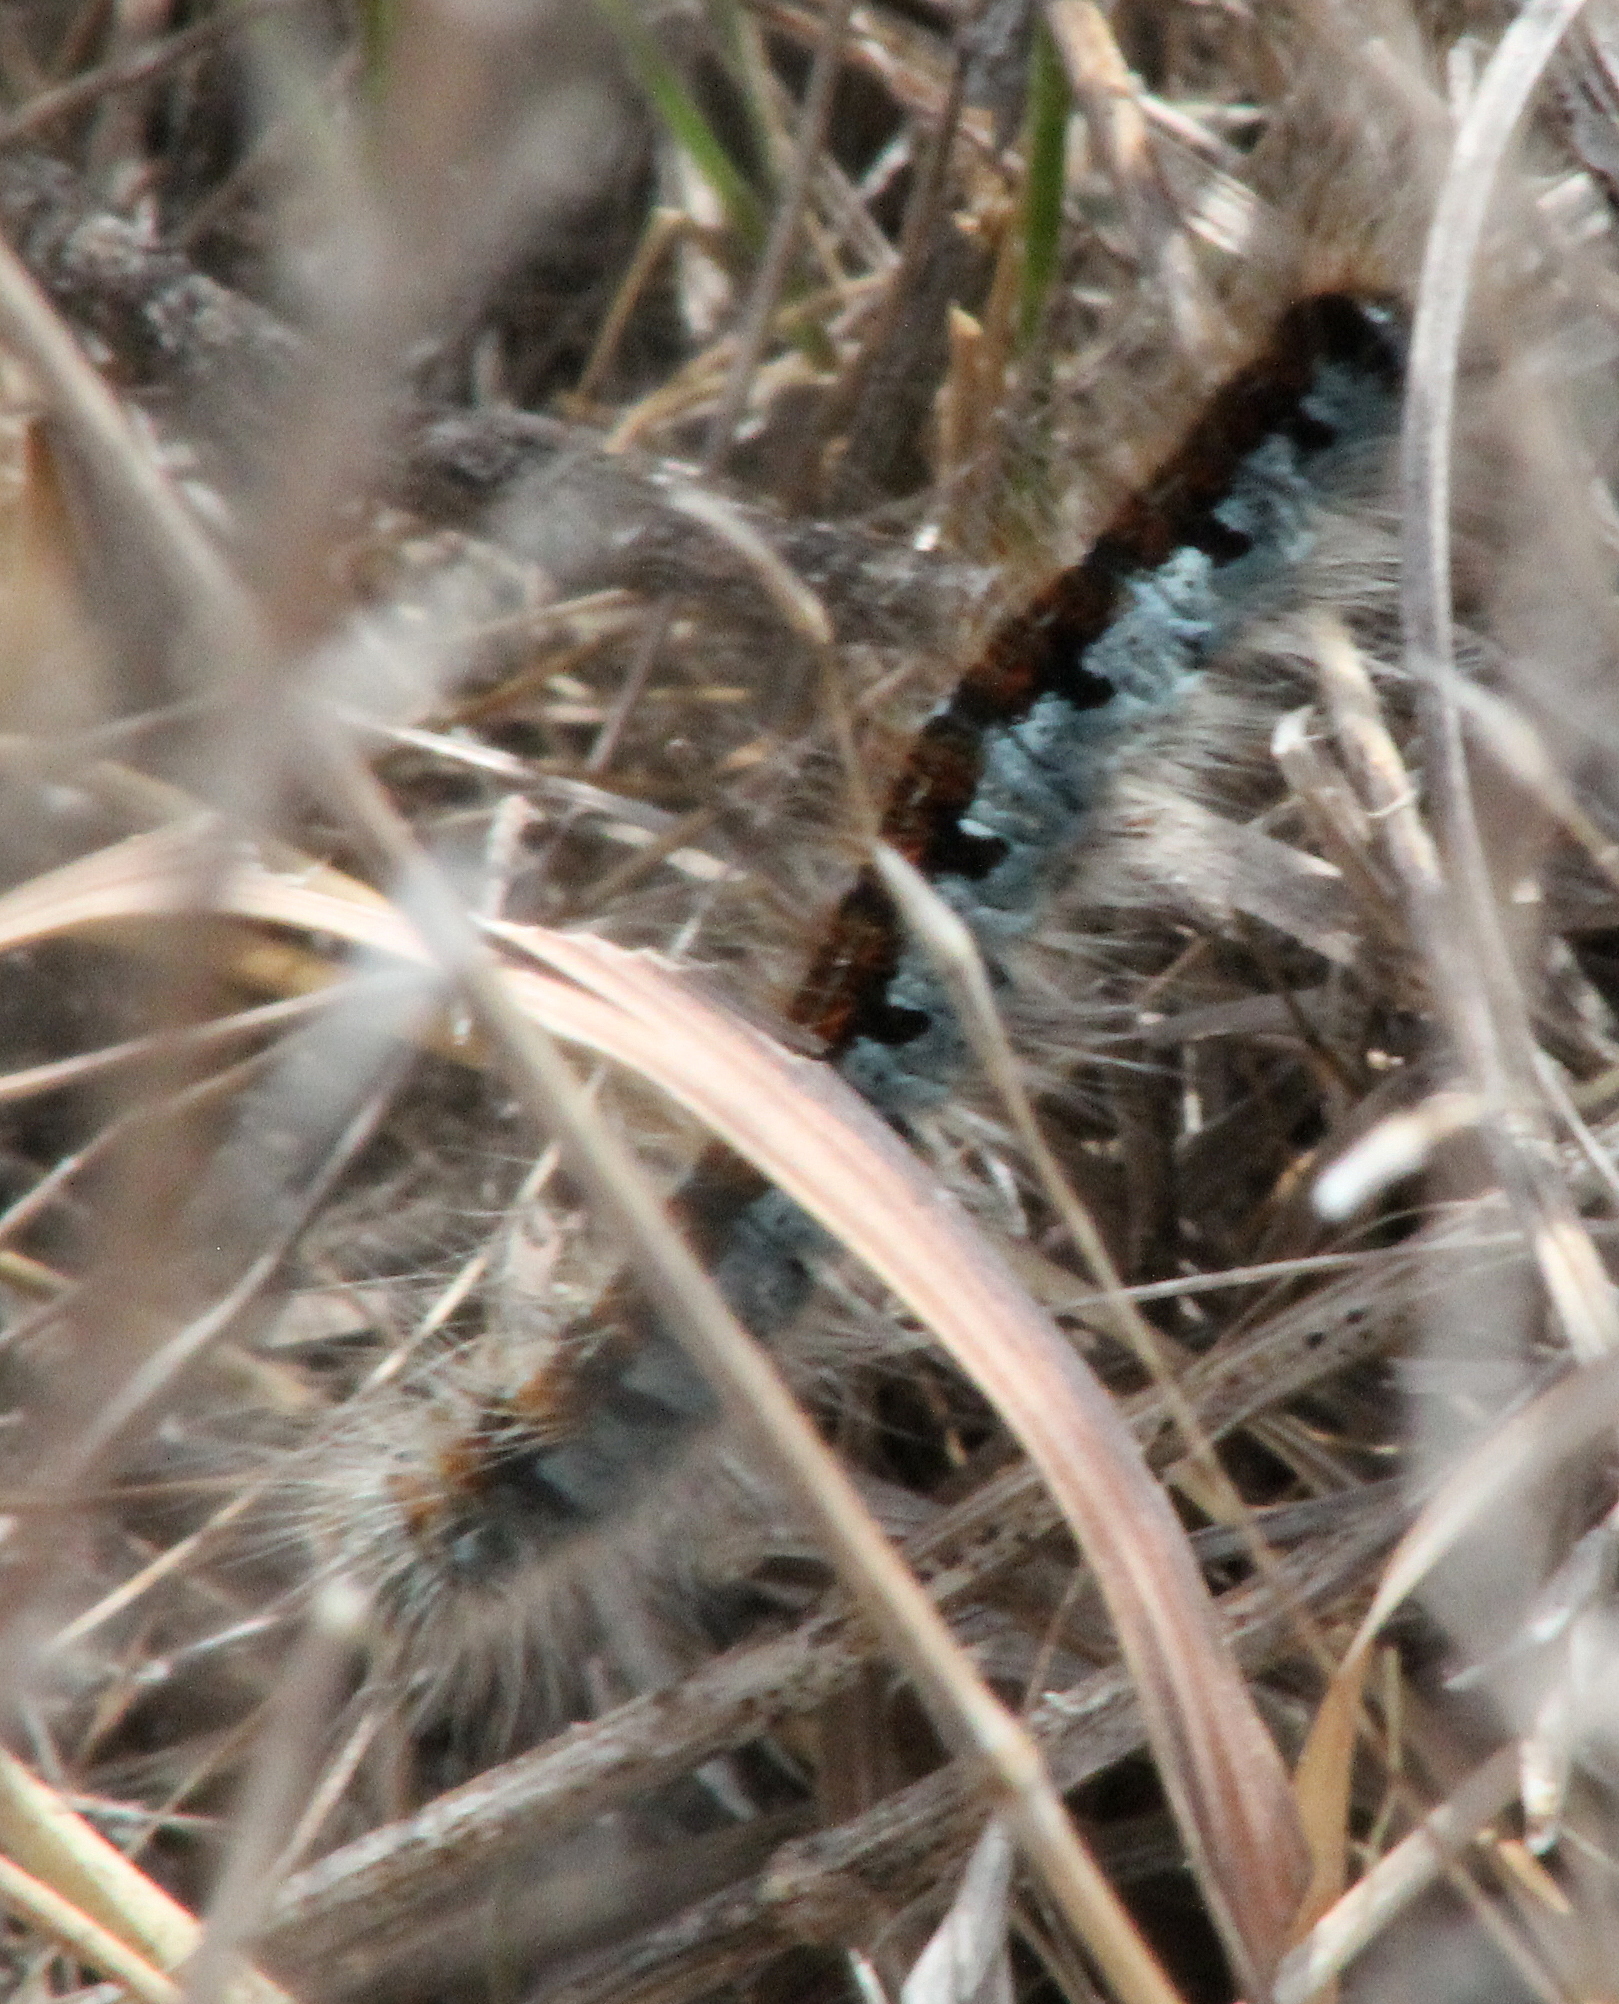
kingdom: Animalia
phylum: Arthropoda
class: Insecta
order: Lepidoptera
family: Lasiocampidae
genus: Malacosoma
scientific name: Malacosoma californica
